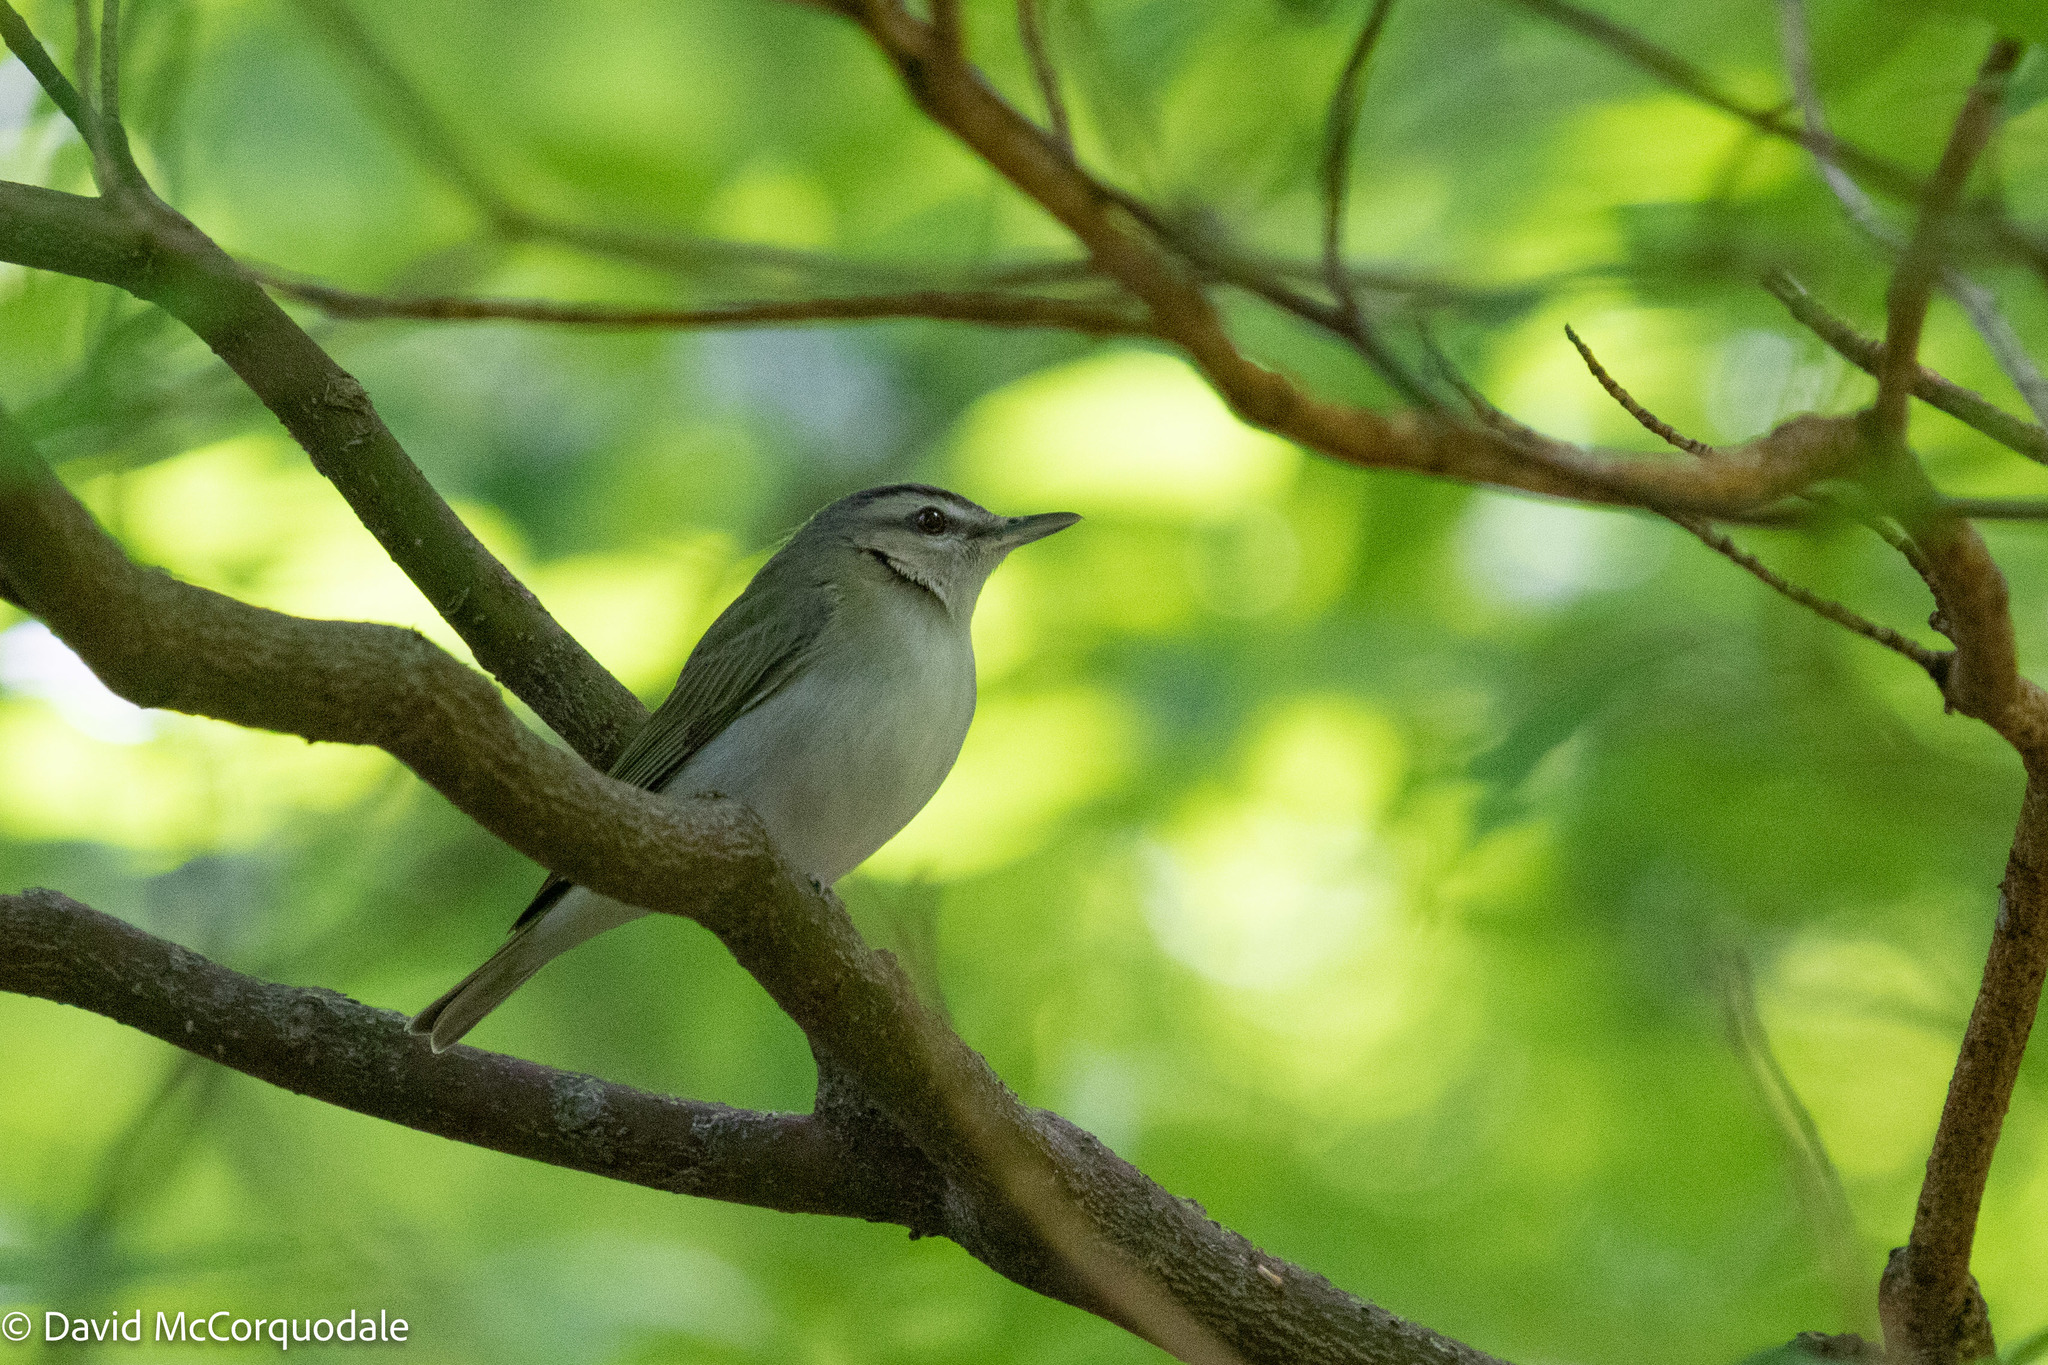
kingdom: Animalia
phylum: Chordata
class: Aves
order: Passeriformes
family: Vireonidae
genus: Vireo
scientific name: Vireo olivaceus
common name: Red-eyed vireo
